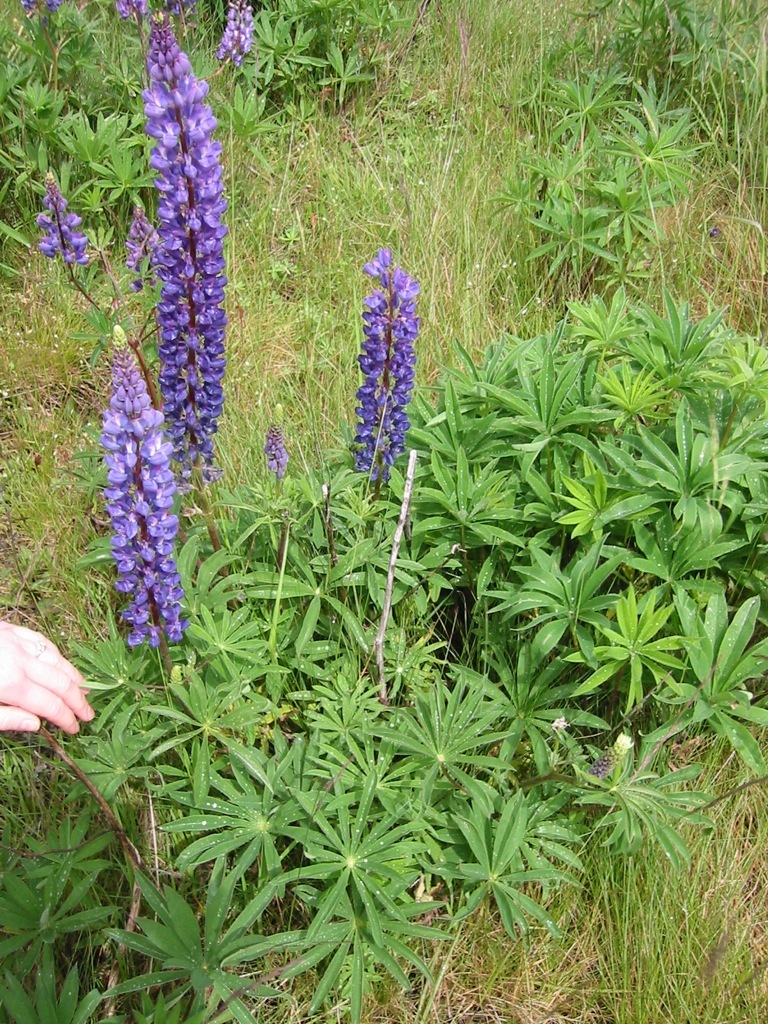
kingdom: Plantae
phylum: Tracheophyta
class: Magnoliopsida
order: Fabales
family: Fabaceae
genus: Lupinus
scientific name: Lupinus polyphyllus
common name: Garden lupin
